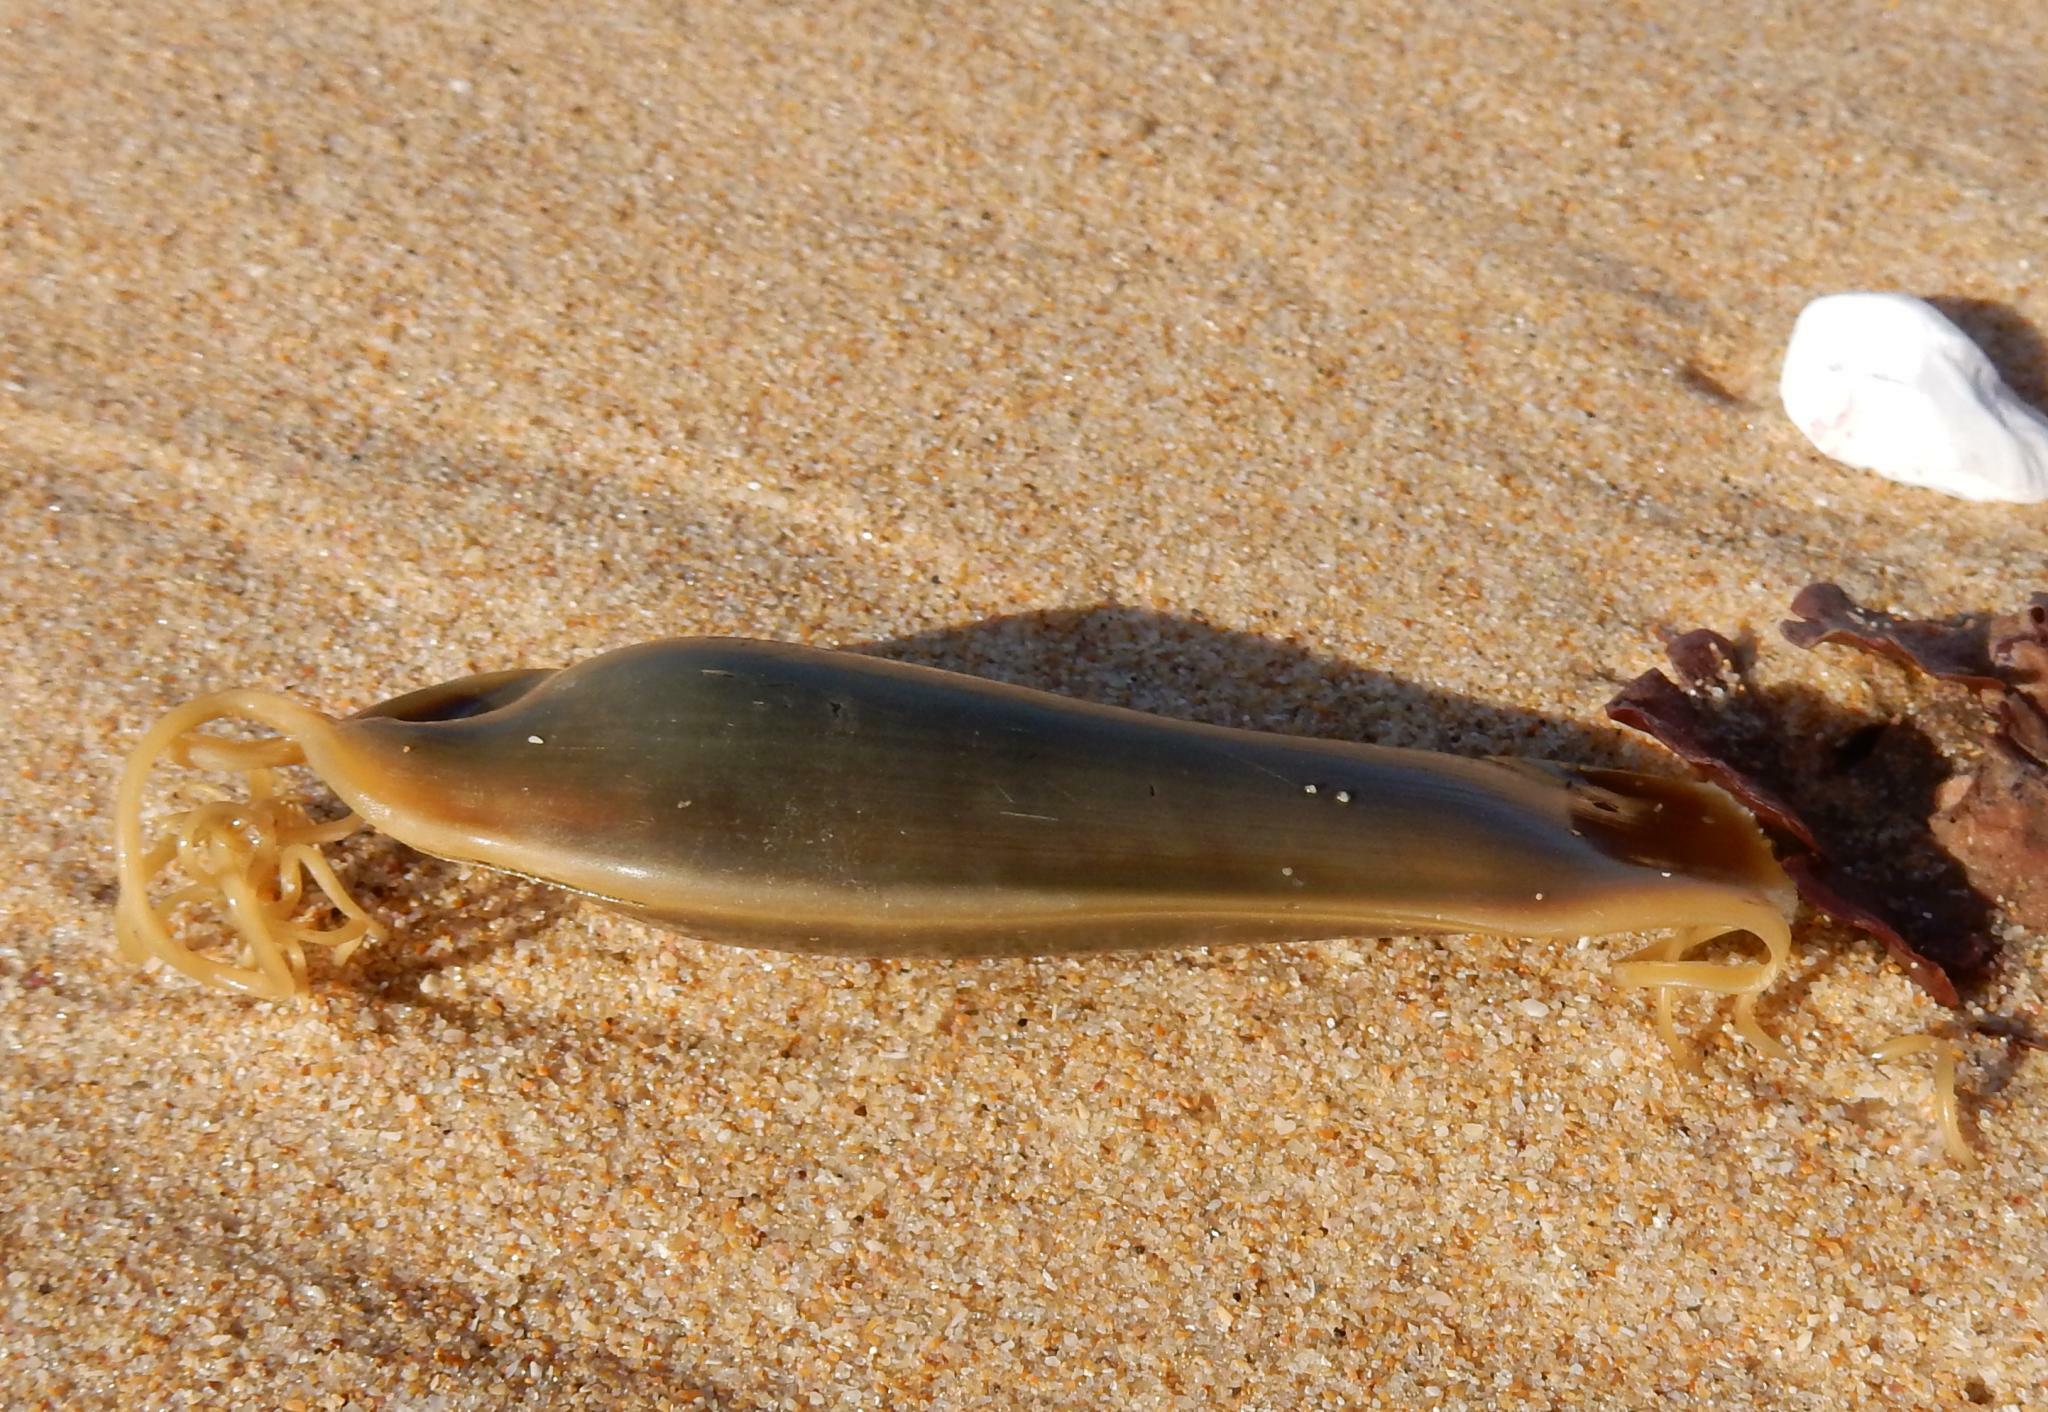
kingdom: Animalia
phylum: Chordata
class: Elasmobranchii
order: Carcharhiniformes
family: Scyliorhinidae
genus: Poroderma
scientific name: Poroderma africanum
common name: Pyjama shark
